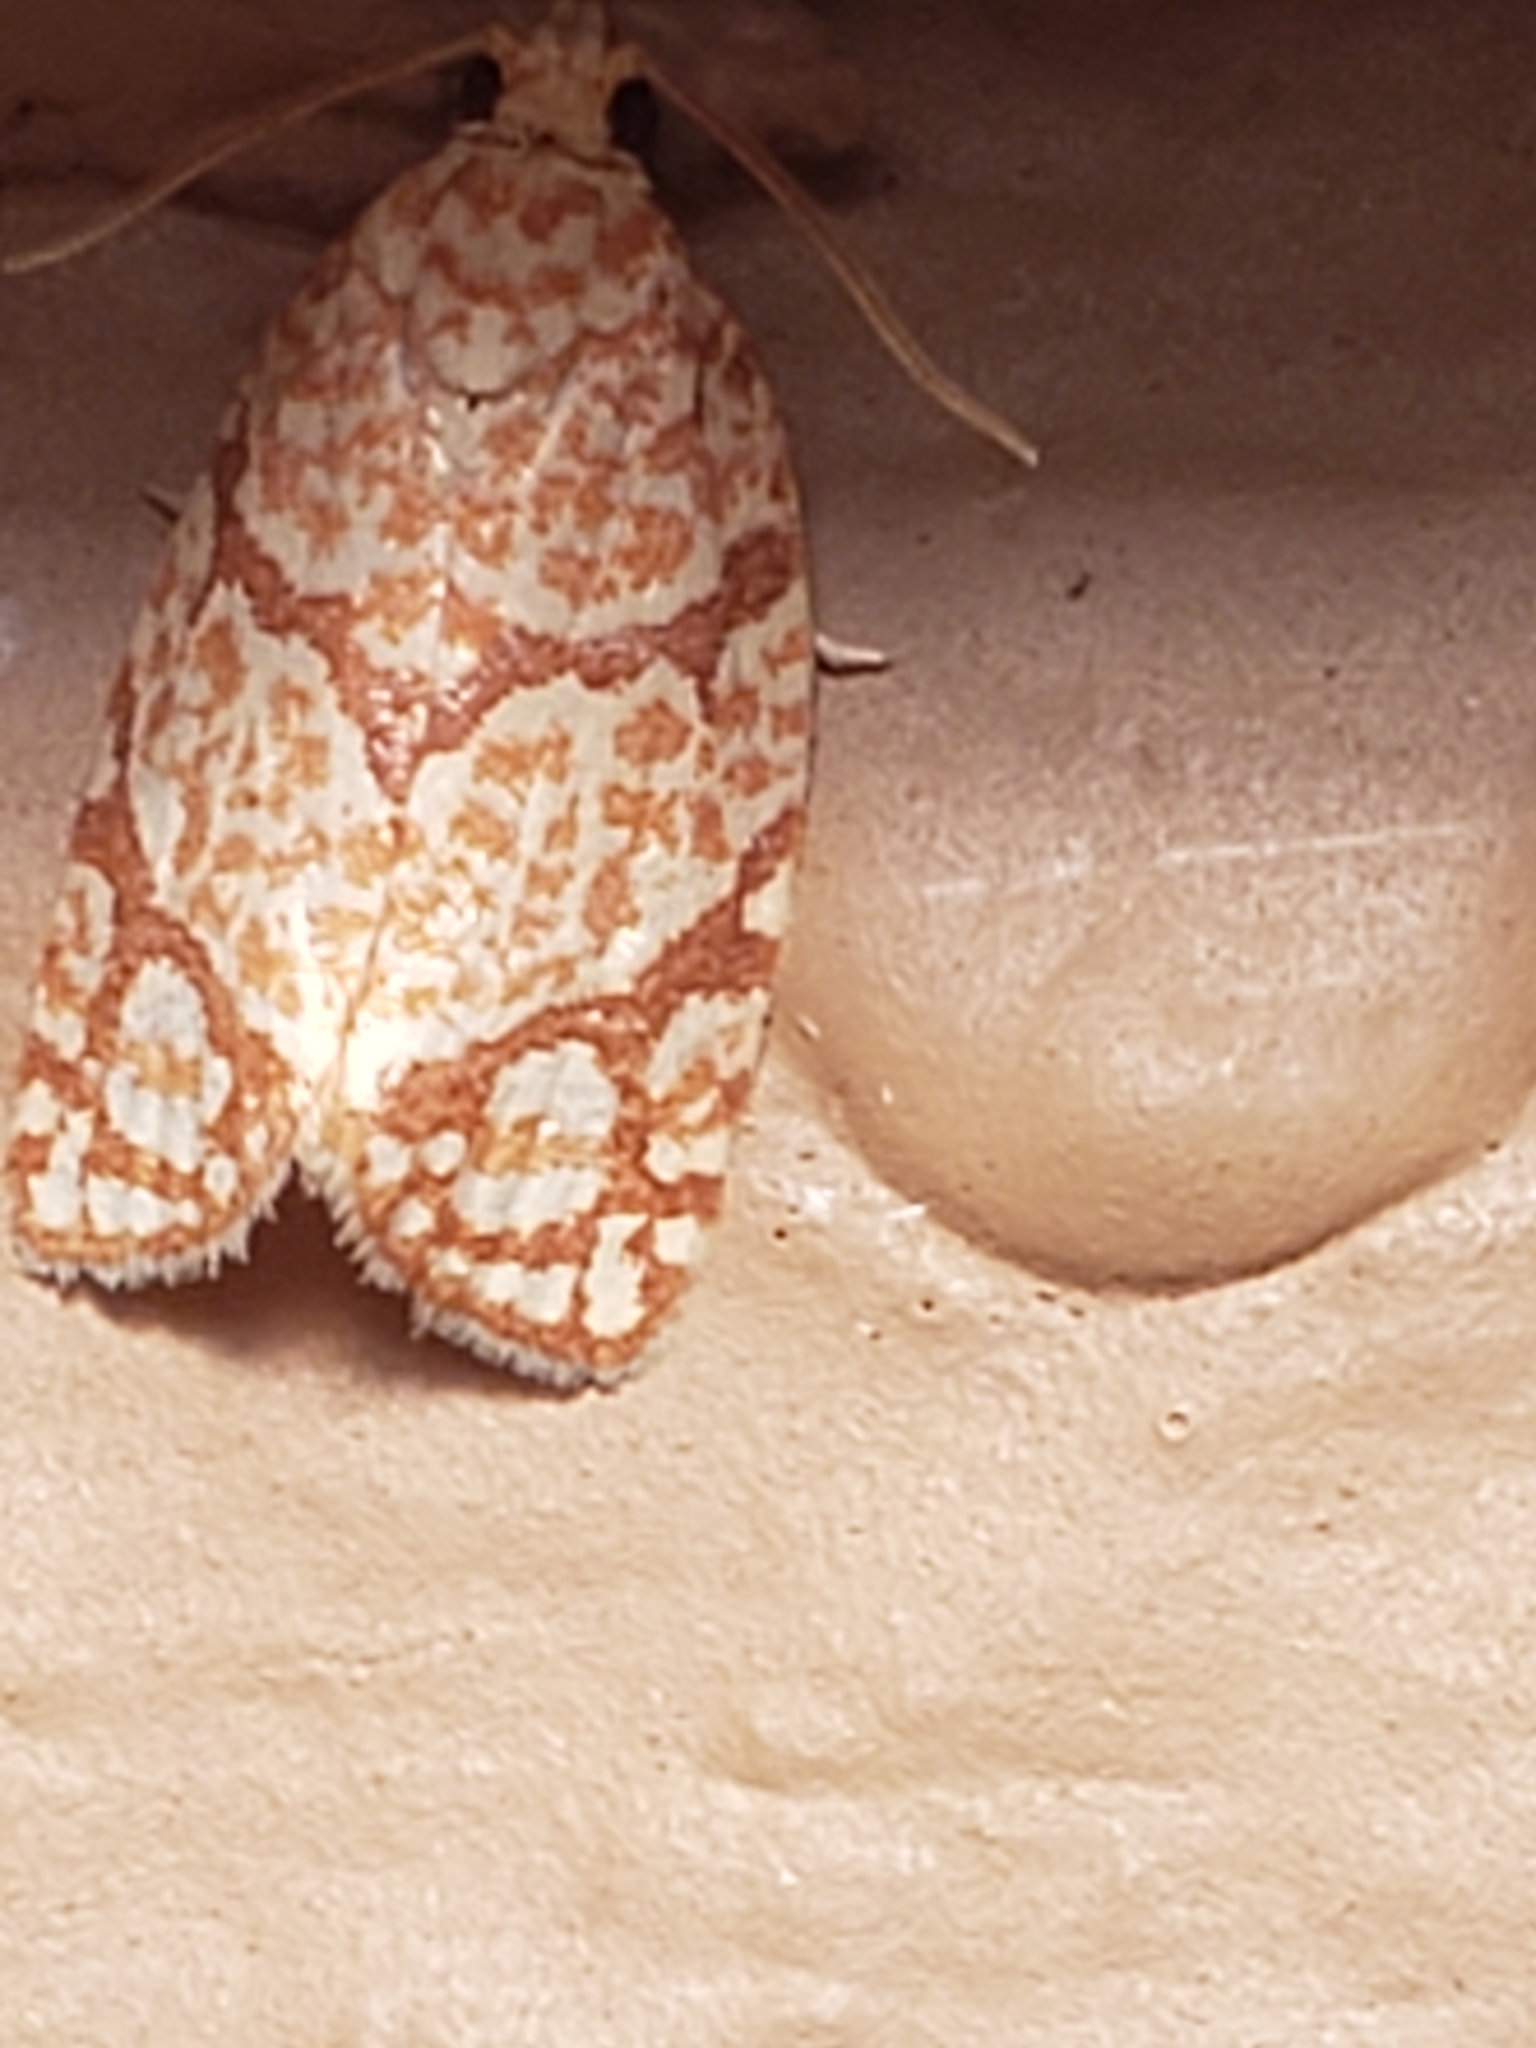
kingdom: Animalia
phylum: Arthropoda
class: Insecta
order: Lepidoptera
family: Tortricidae
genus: Argyrotaenia
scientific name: Argyrotaenia quercifoliana
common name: Yellow-winged oak leafroller moth
